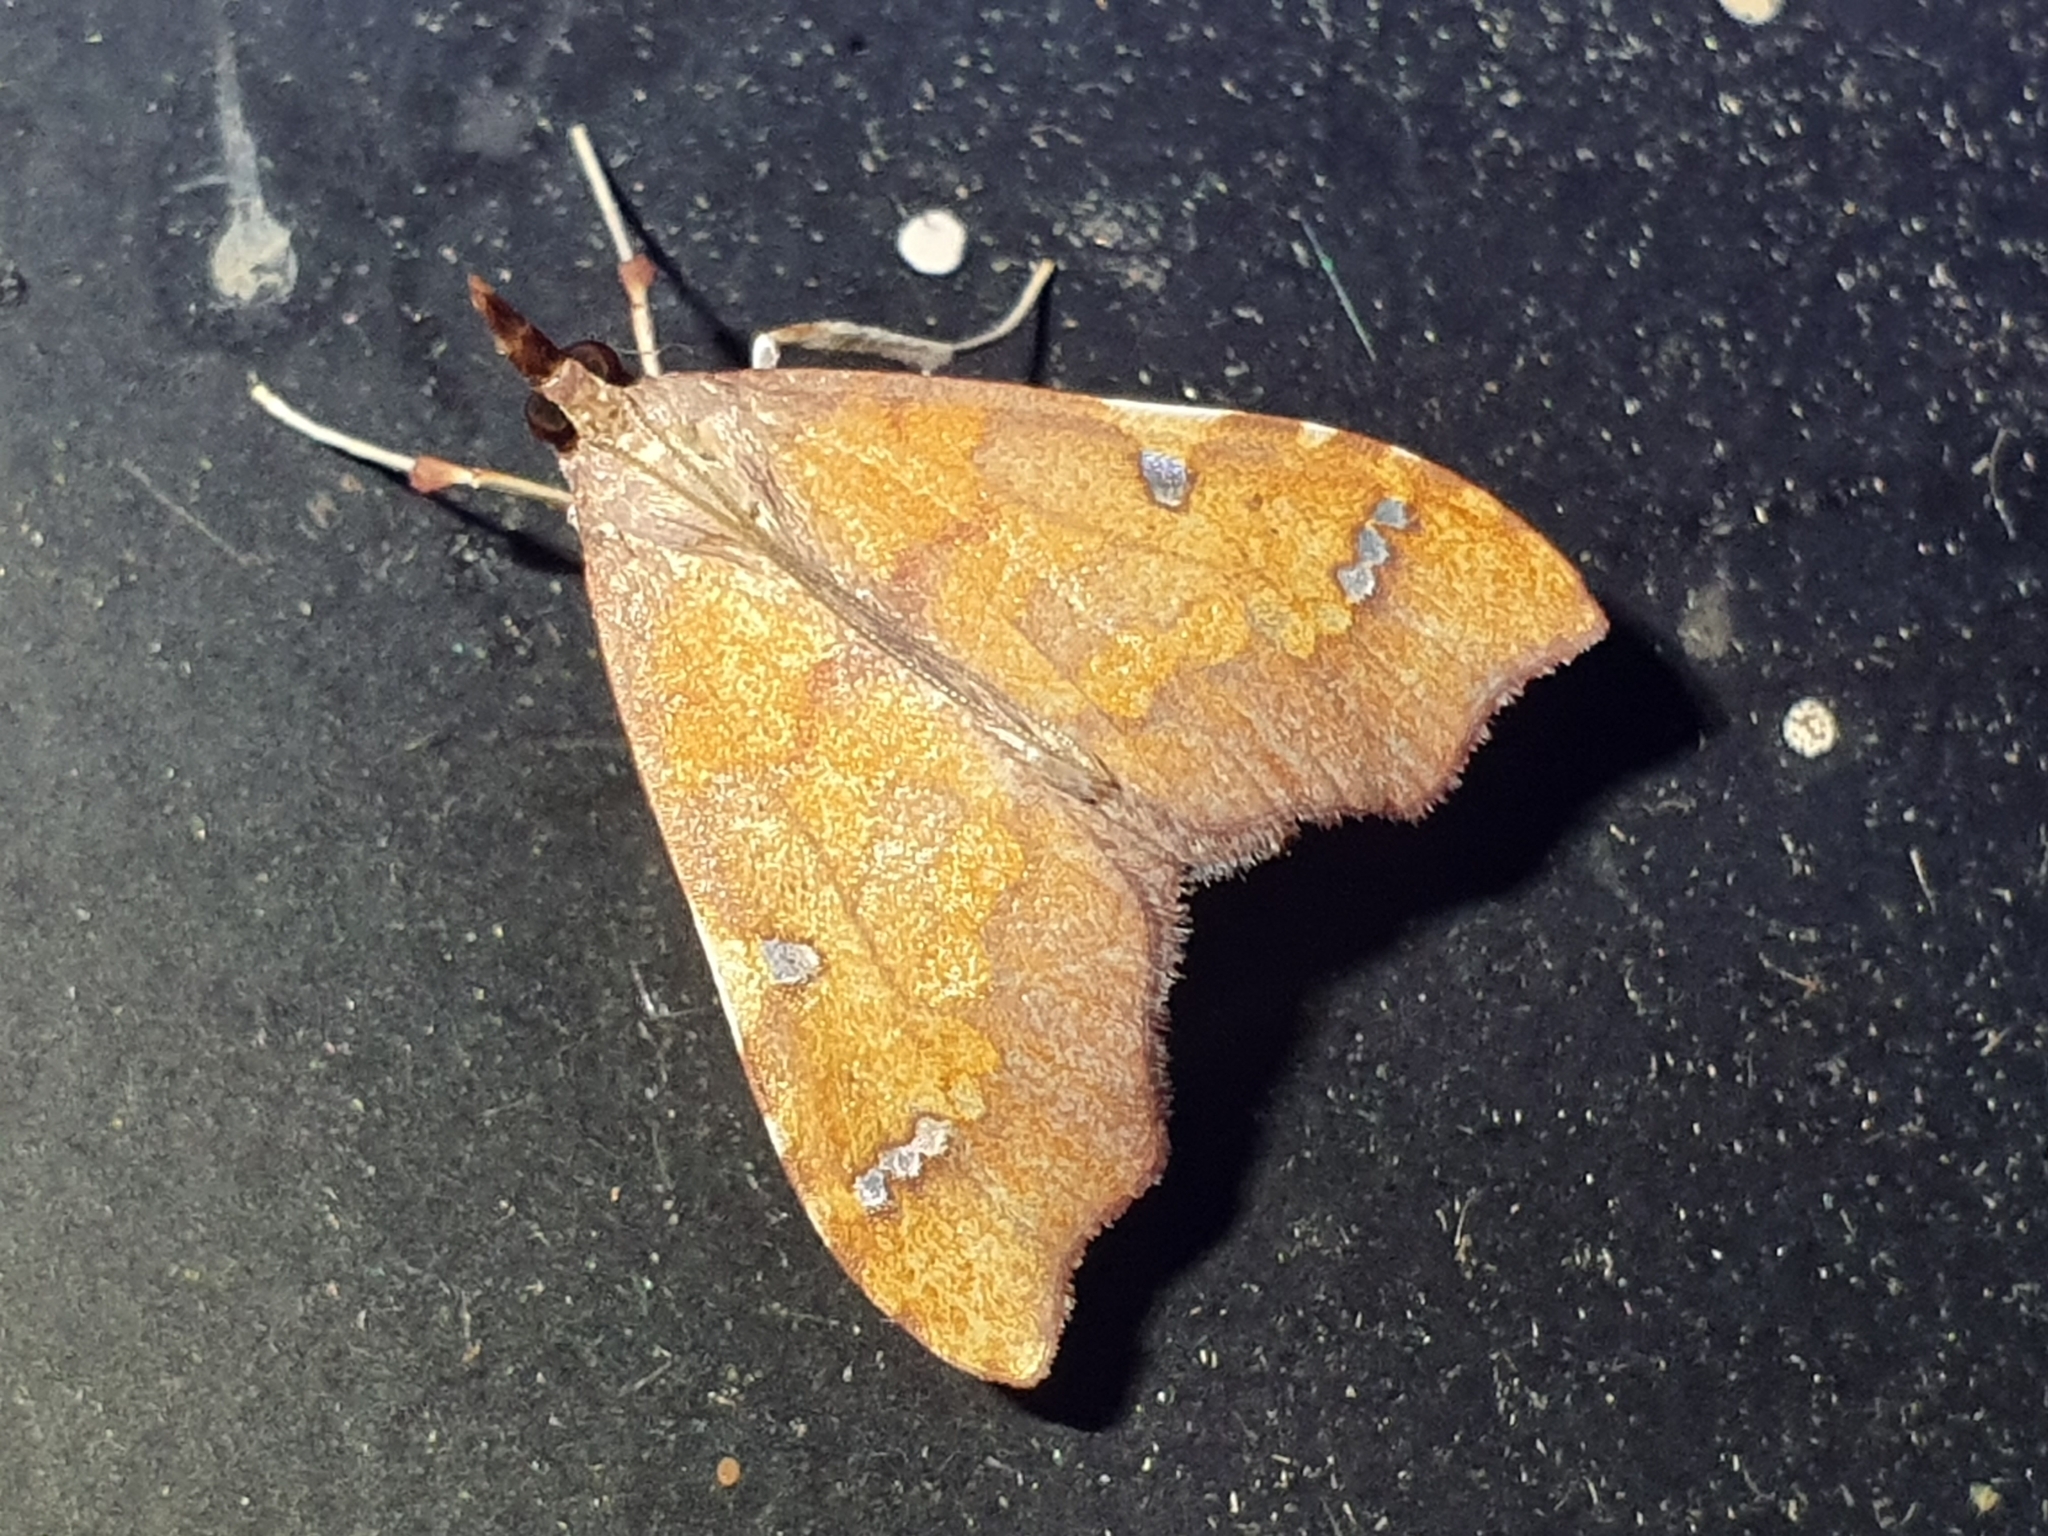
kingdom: Animalia
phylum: Arthropoda
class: Insecta
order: Lepidoptera
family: Crambidae
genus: Deana
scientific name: Deana hybreasalis
